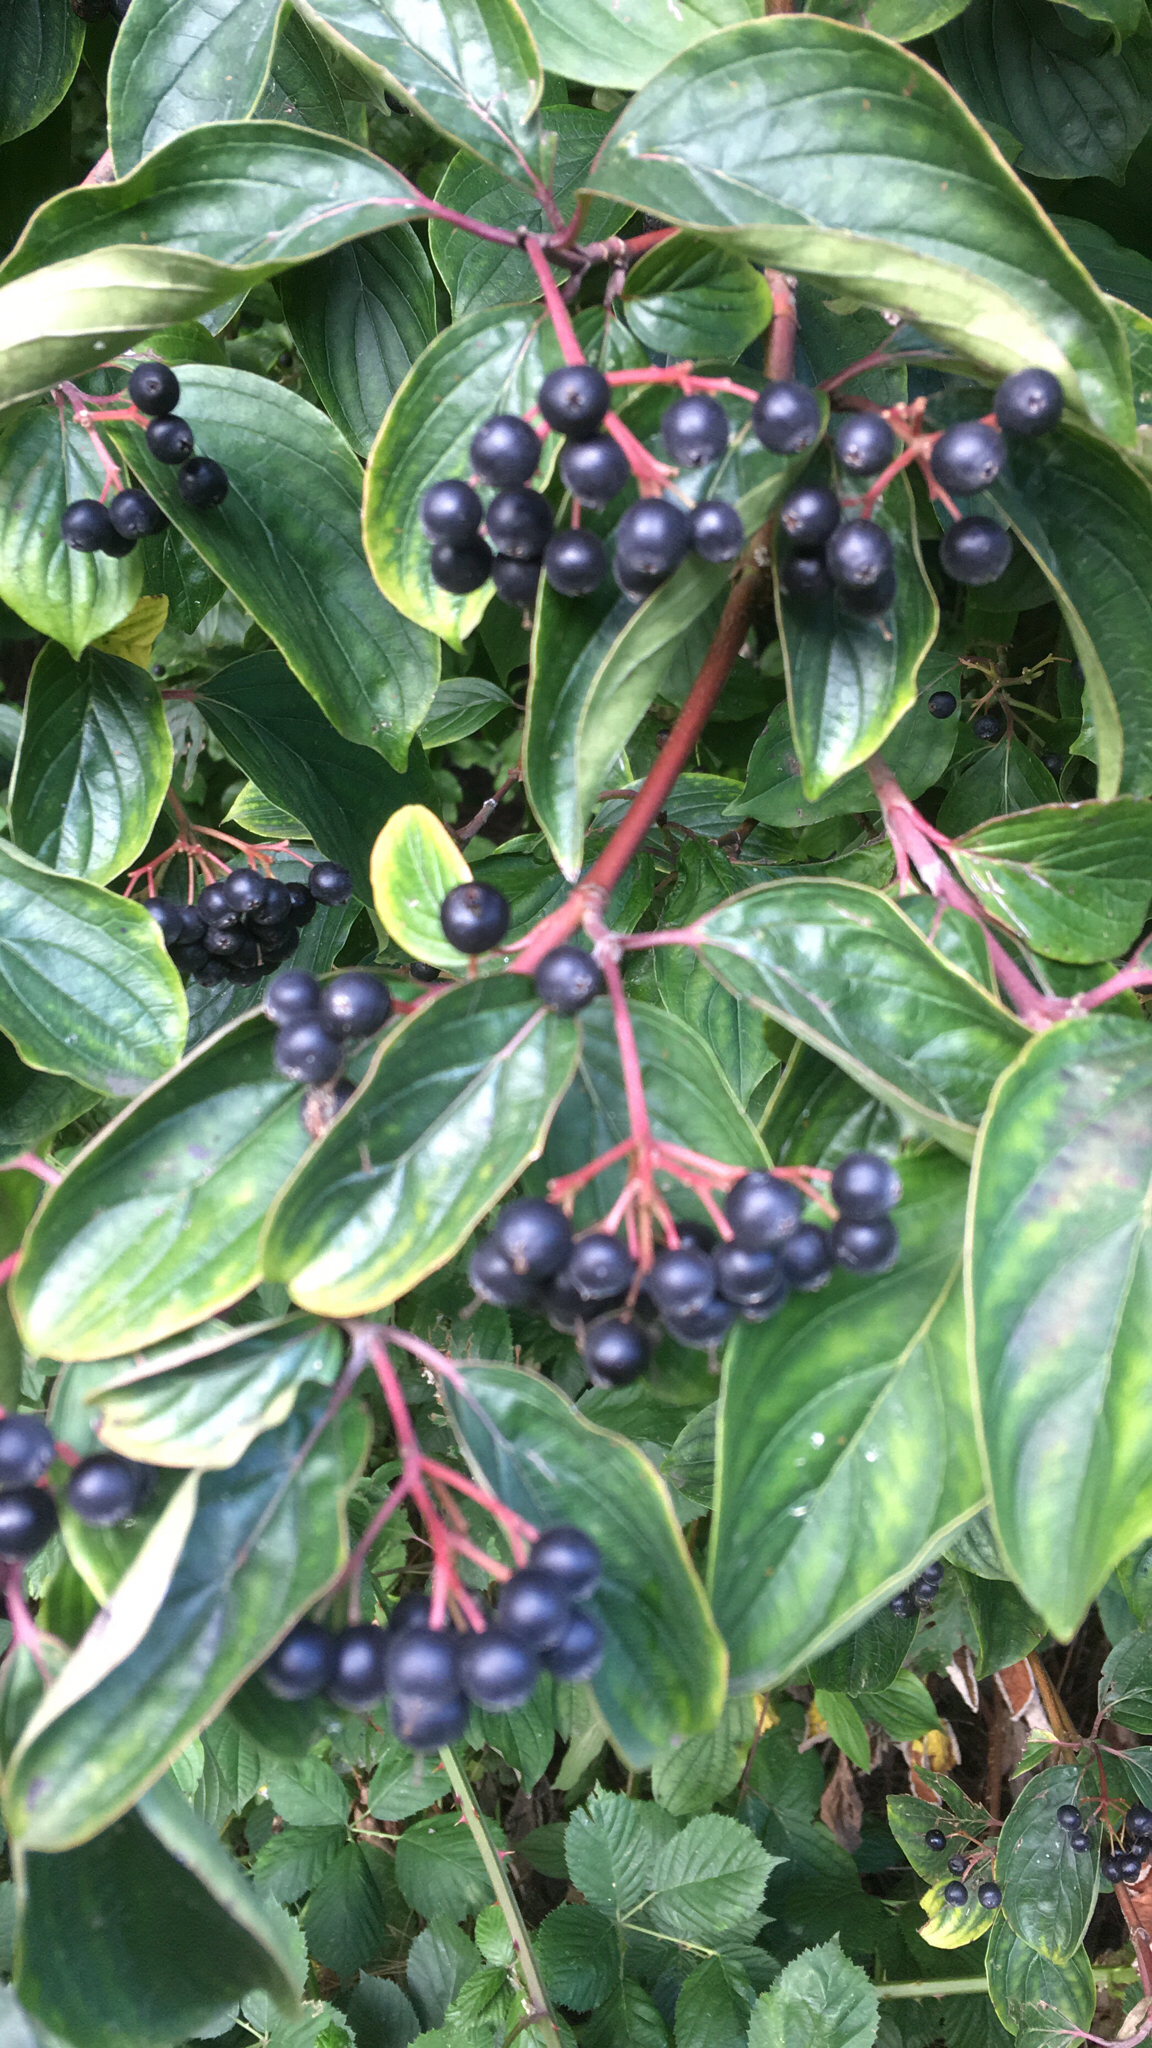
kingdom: Plantae
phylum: Tracheophyta
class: Magnoliopsida
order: Cornales
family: Cornaceae
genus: Cornus
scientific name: Cornus sanguinea
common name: Dogwood
